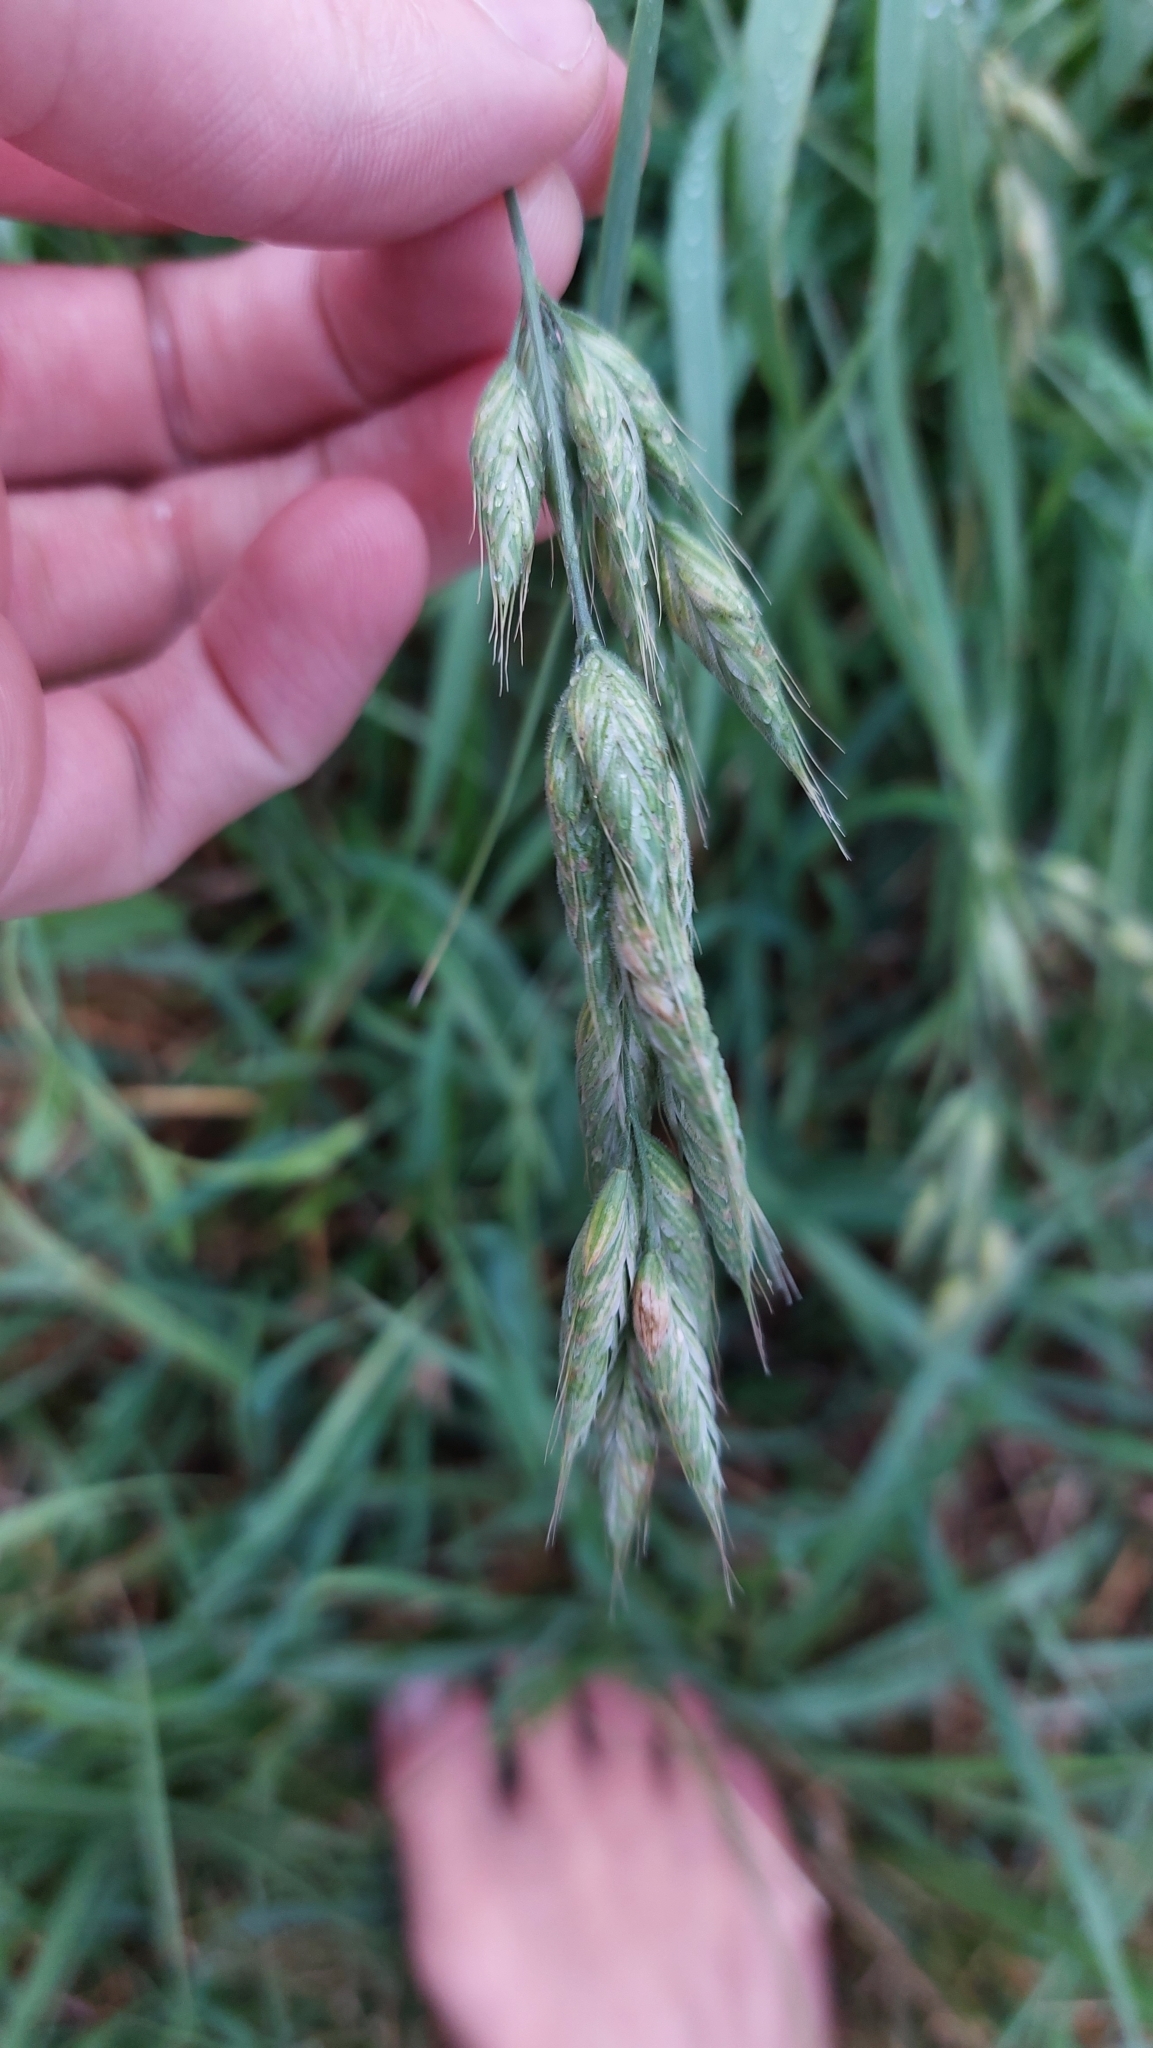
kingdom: Plantae
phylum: Tracheophyta
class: Liliopsida
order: Poales
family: Poaceae
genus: Bromus
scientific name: Bromus hordeaceus
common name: Soft brome
